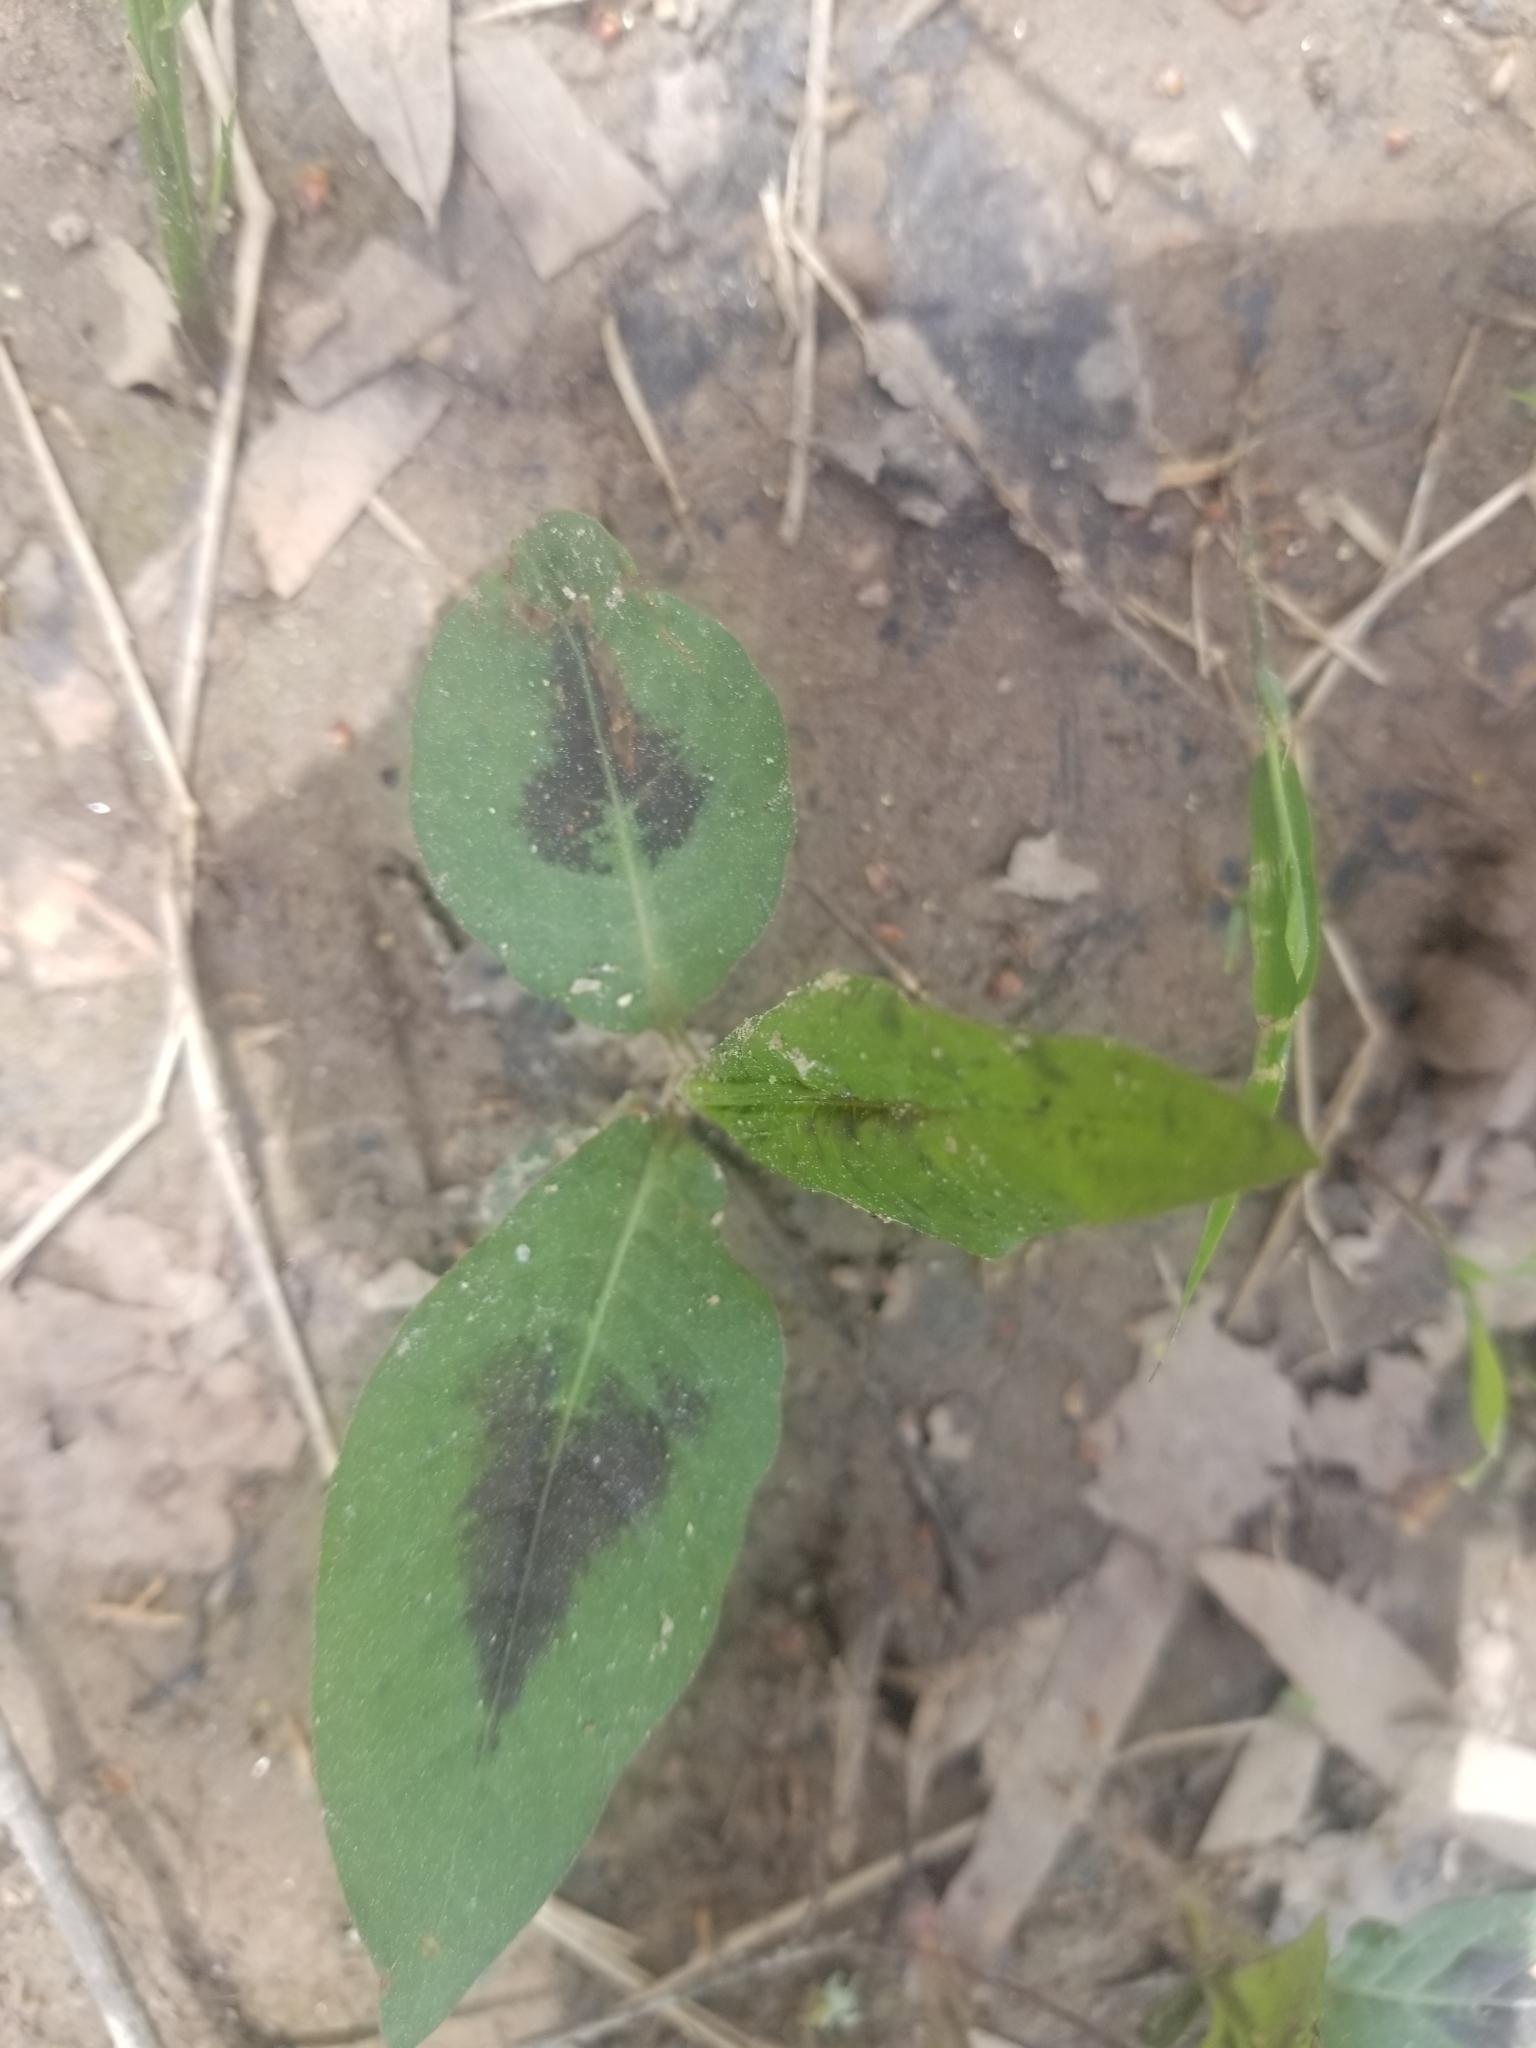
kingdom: Plantae
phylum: Tracheophyta
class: Magnoliopsida
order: Caryophyllales
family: Polygonaceae
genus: Persicaria
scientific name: Persicaria virginiana
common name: Jumpseed
